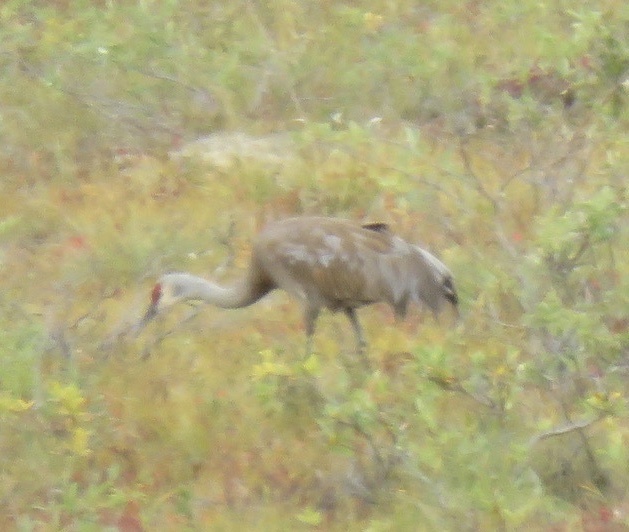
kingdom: Animalia
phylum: Chordata
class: Aves
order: Gruiformes
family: Gruidae
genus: Grus
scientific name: Grus canadensis
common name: Sandhill crane
